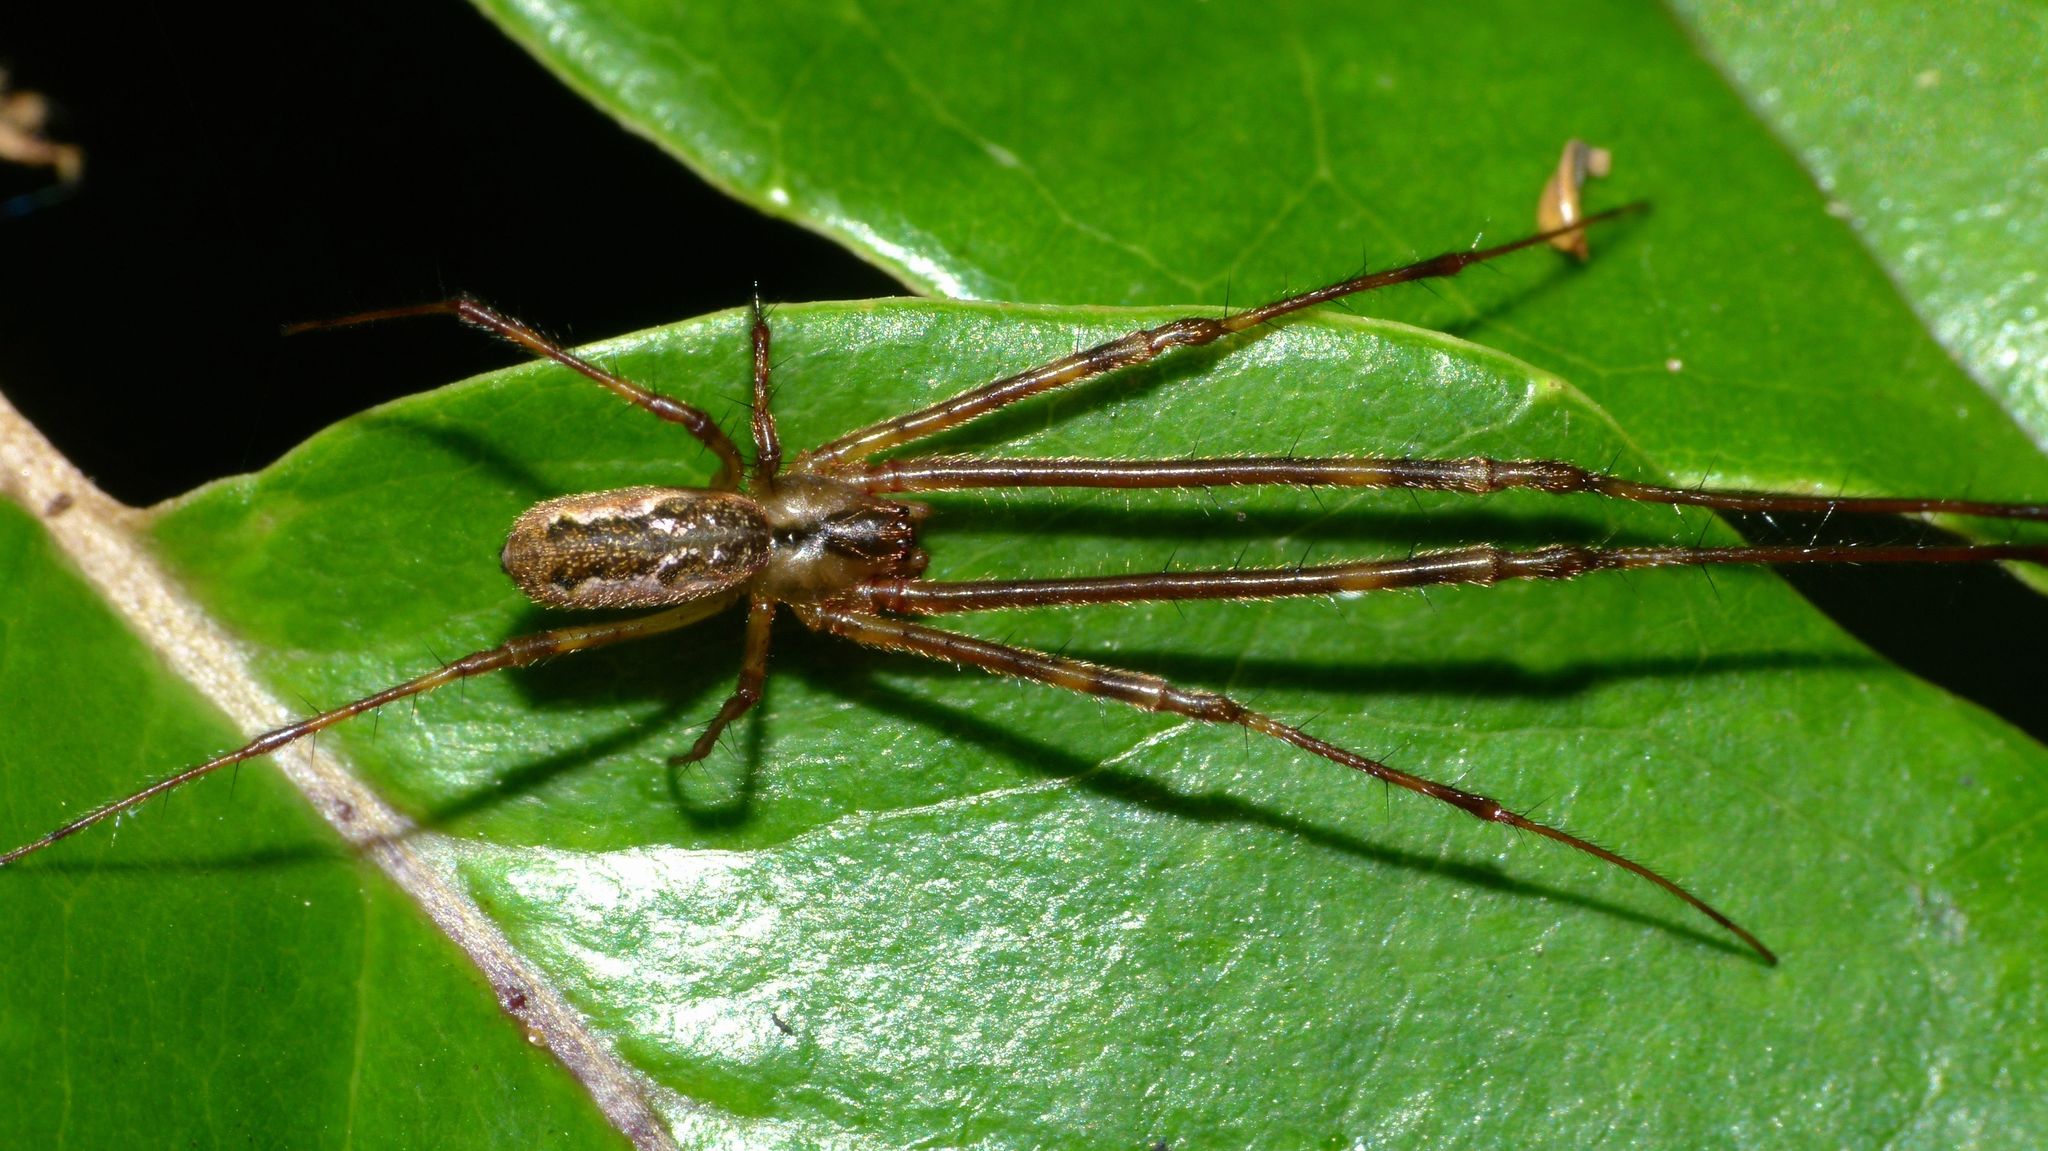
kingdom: Animalia
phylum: Arthropoda
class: Arachnida
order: Araneae
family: Tetragnathidae
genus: Nanometa
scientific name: Nanometa lagenifera
